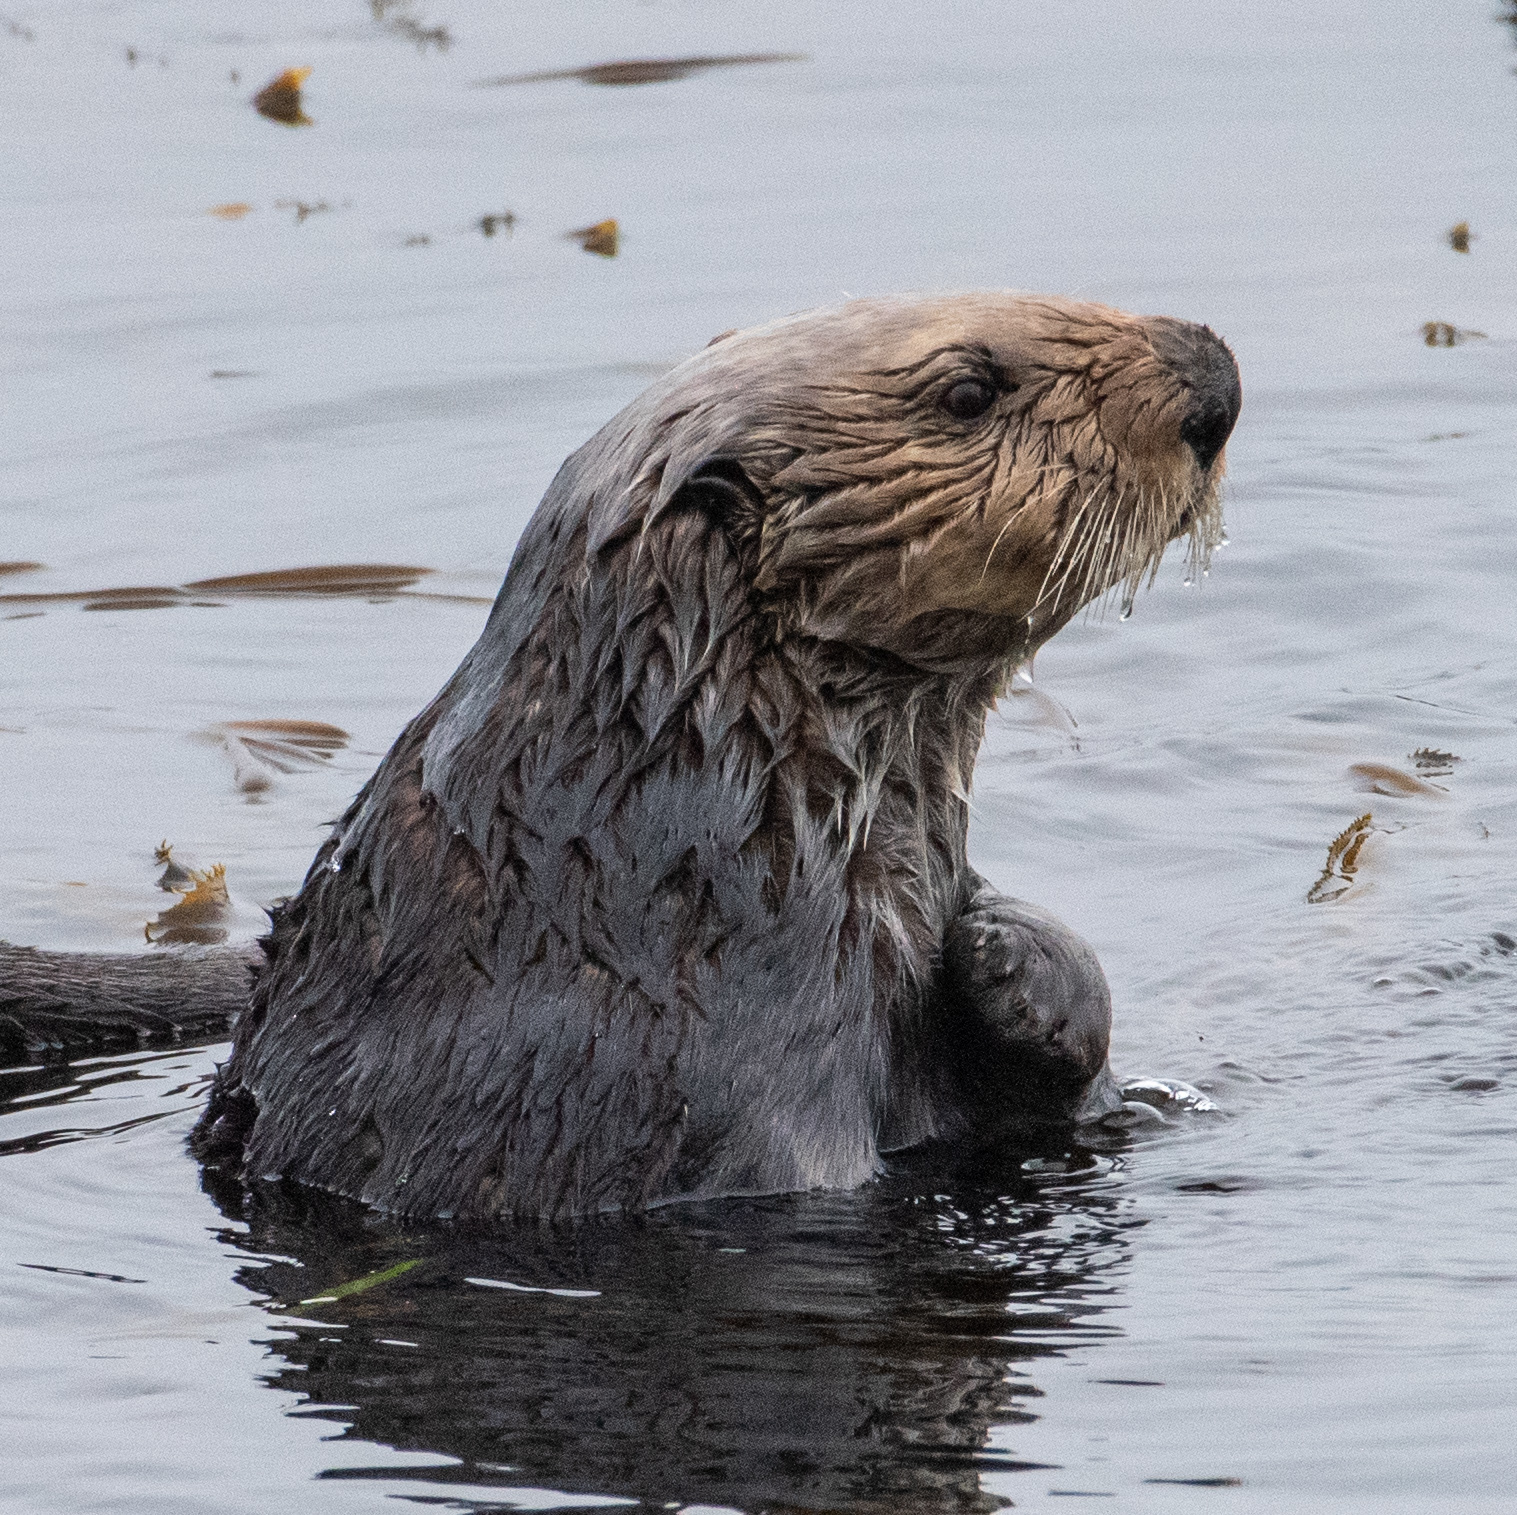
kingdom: Animalia
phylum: Chordata
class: Mammalia
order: Carnivora
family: Mustelidae
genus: Enhydra
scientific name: Enhydra lutris
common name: Sea otter
